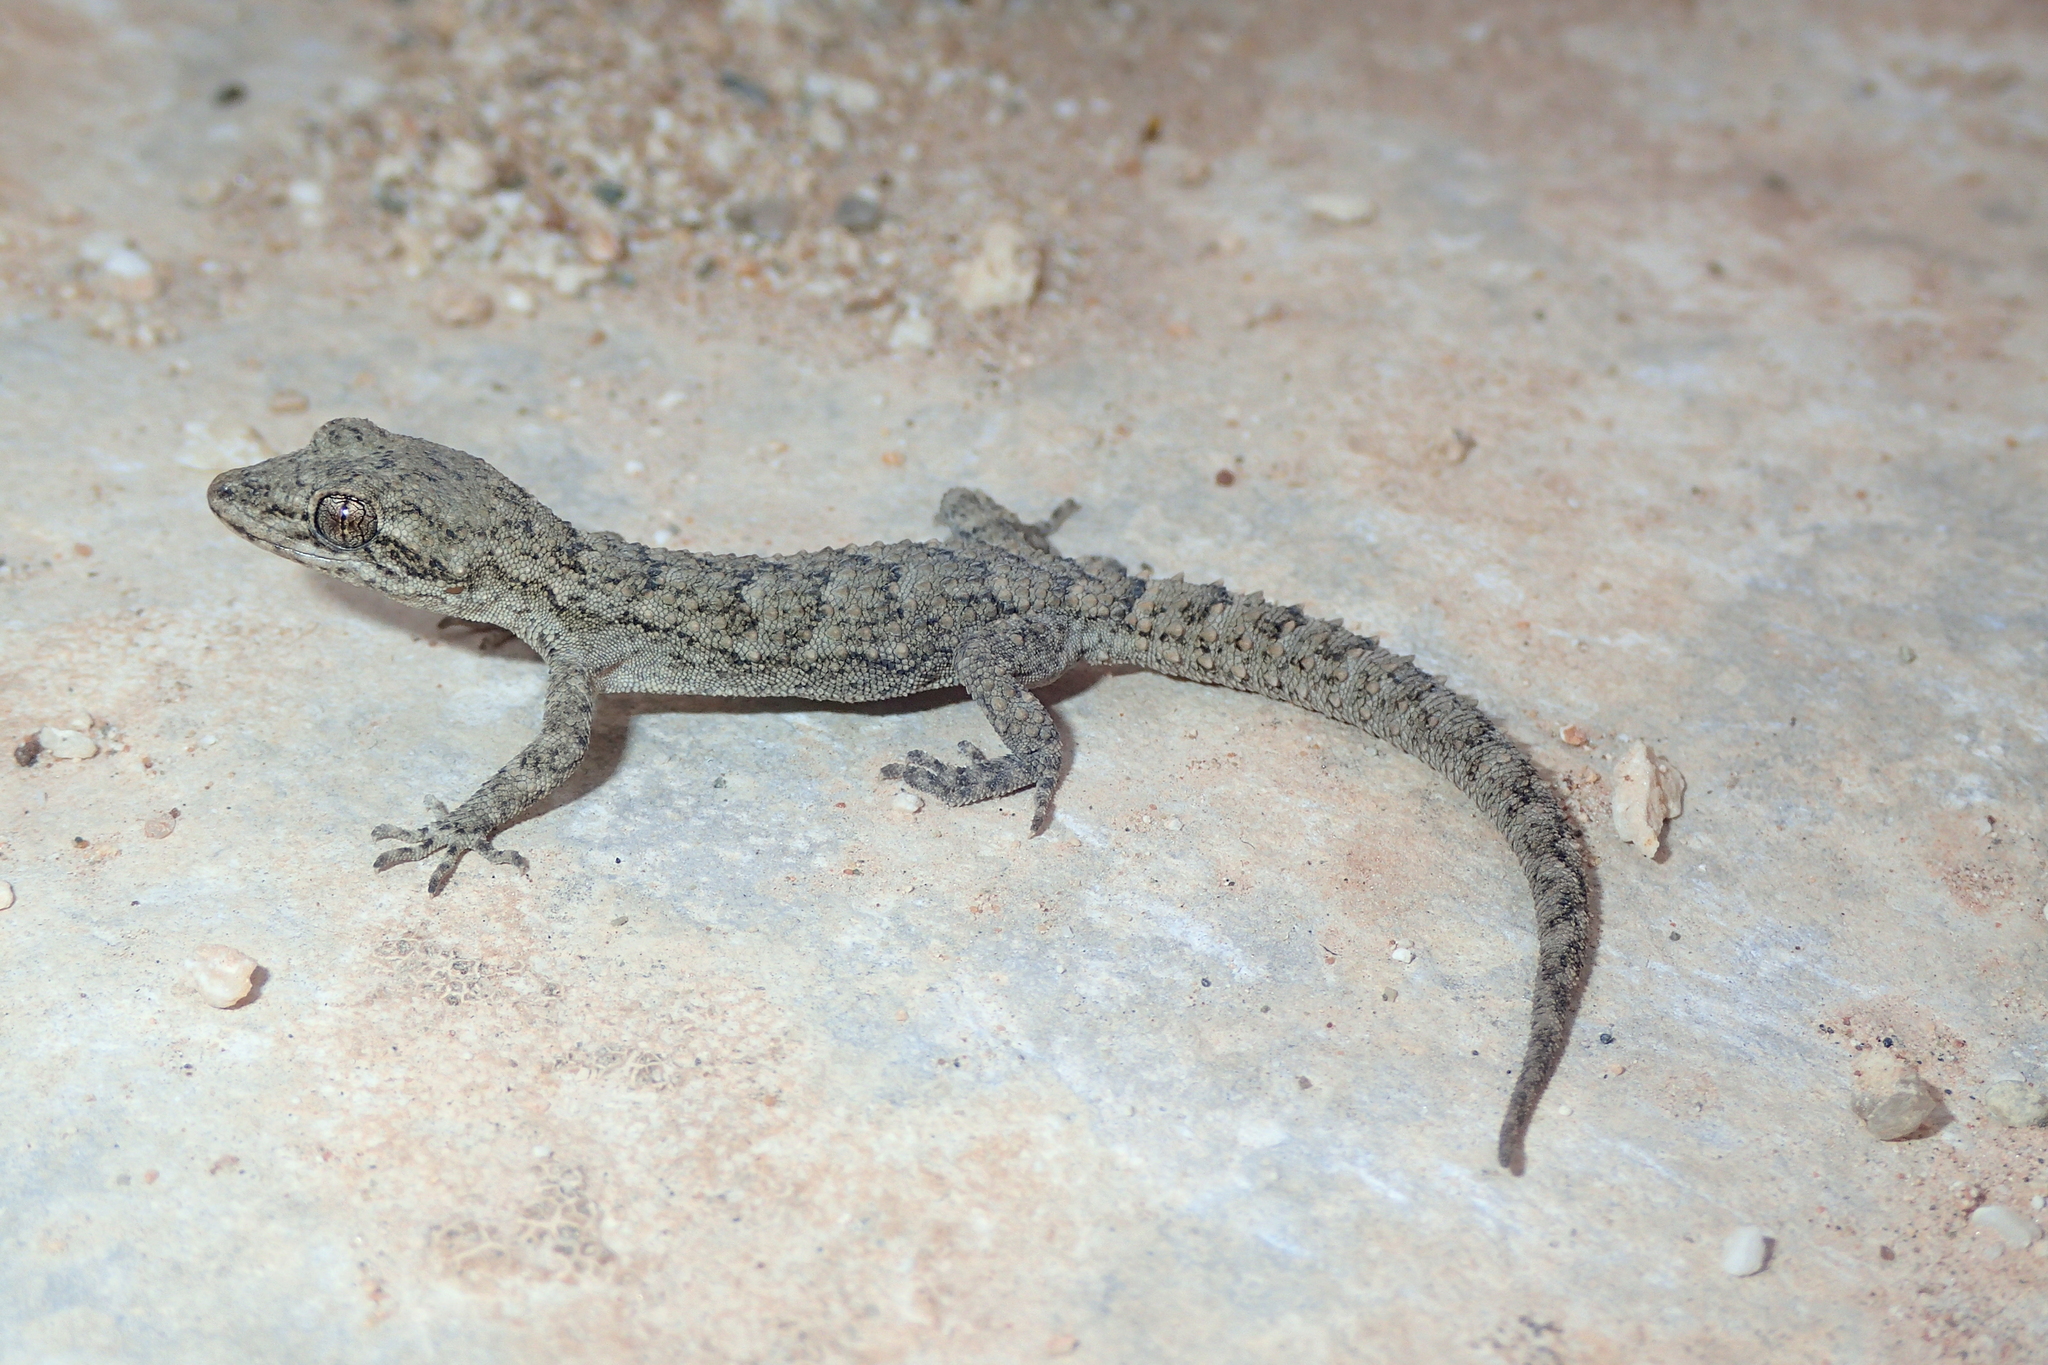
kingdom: Animalia
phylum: Chordata
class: Squamata
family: Gekkonidae
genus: Mediodactylus
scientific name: Mediodactylus orientalis
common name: Mediterranean thin-toed gecko
